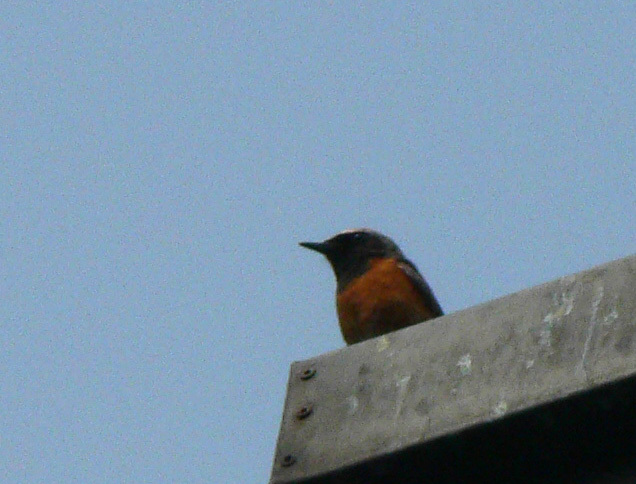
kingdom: Animalia
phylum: Chordata
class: Aves
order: Passeriformes
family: Muscicapidae
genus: Phoenicurus
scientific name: Phoenicurus phoenicurus
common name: Common redstart
